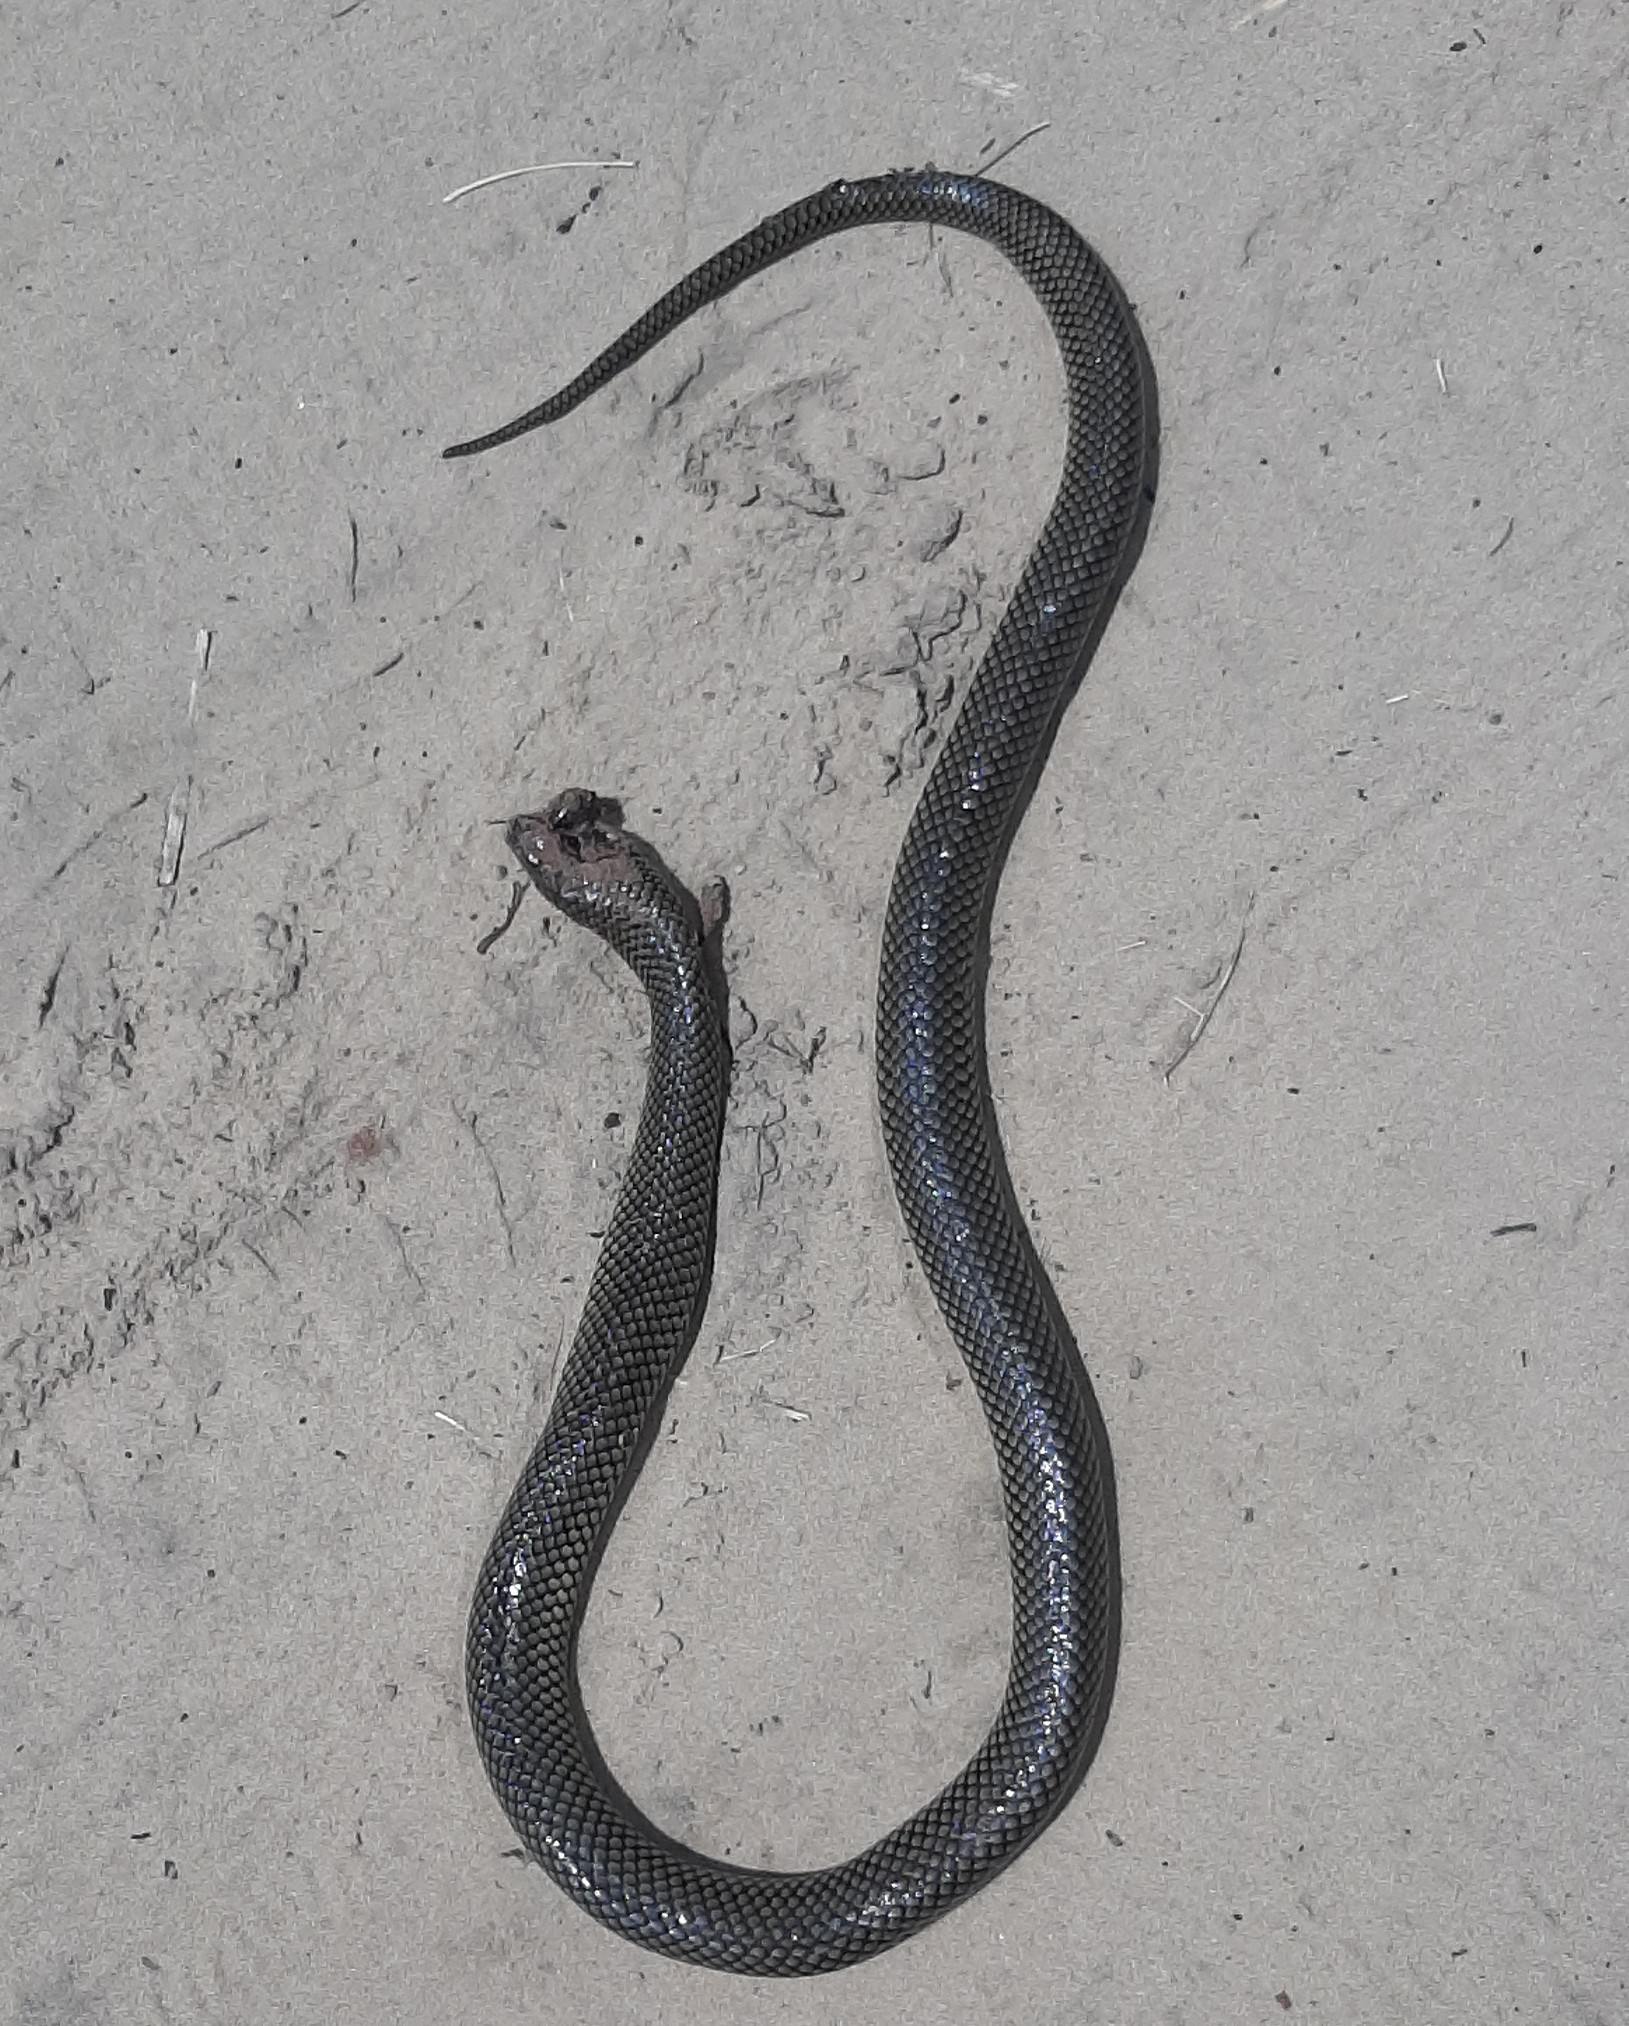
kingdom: Animalia
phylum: Chordata
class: Squamata
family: Colubridae
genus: Erythrolamprus
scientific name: Erythrolamprus semiaureus
